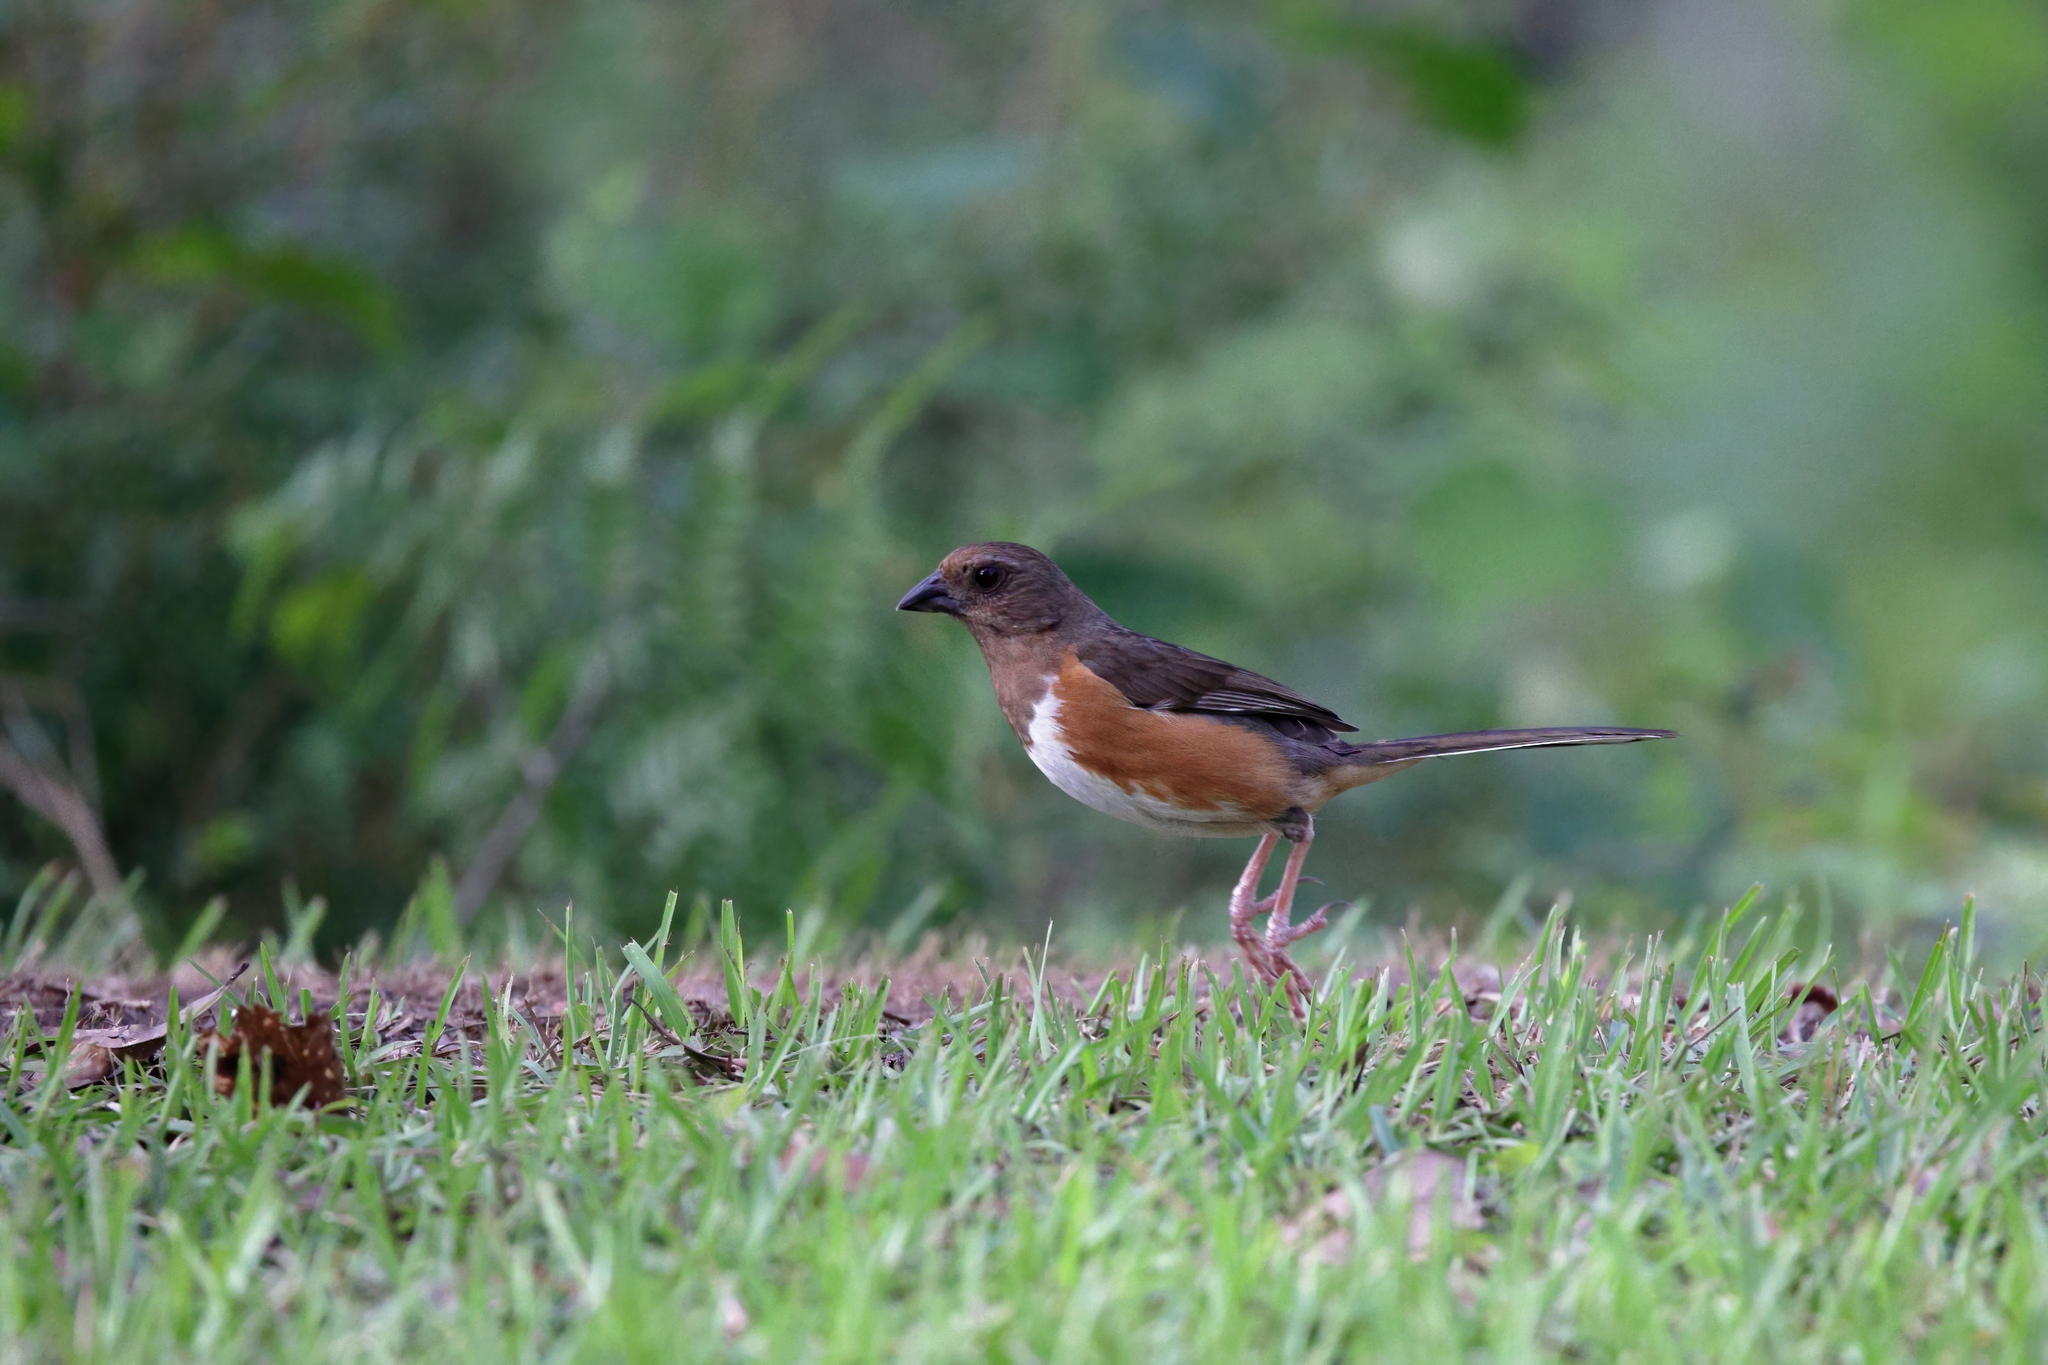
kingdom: Animalia
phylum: Chordata
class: Aves
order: Passeriformes
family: Passerellidae
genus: Pipilo
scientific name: Pipilo erythrophthalmus
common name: Eastern towhee
